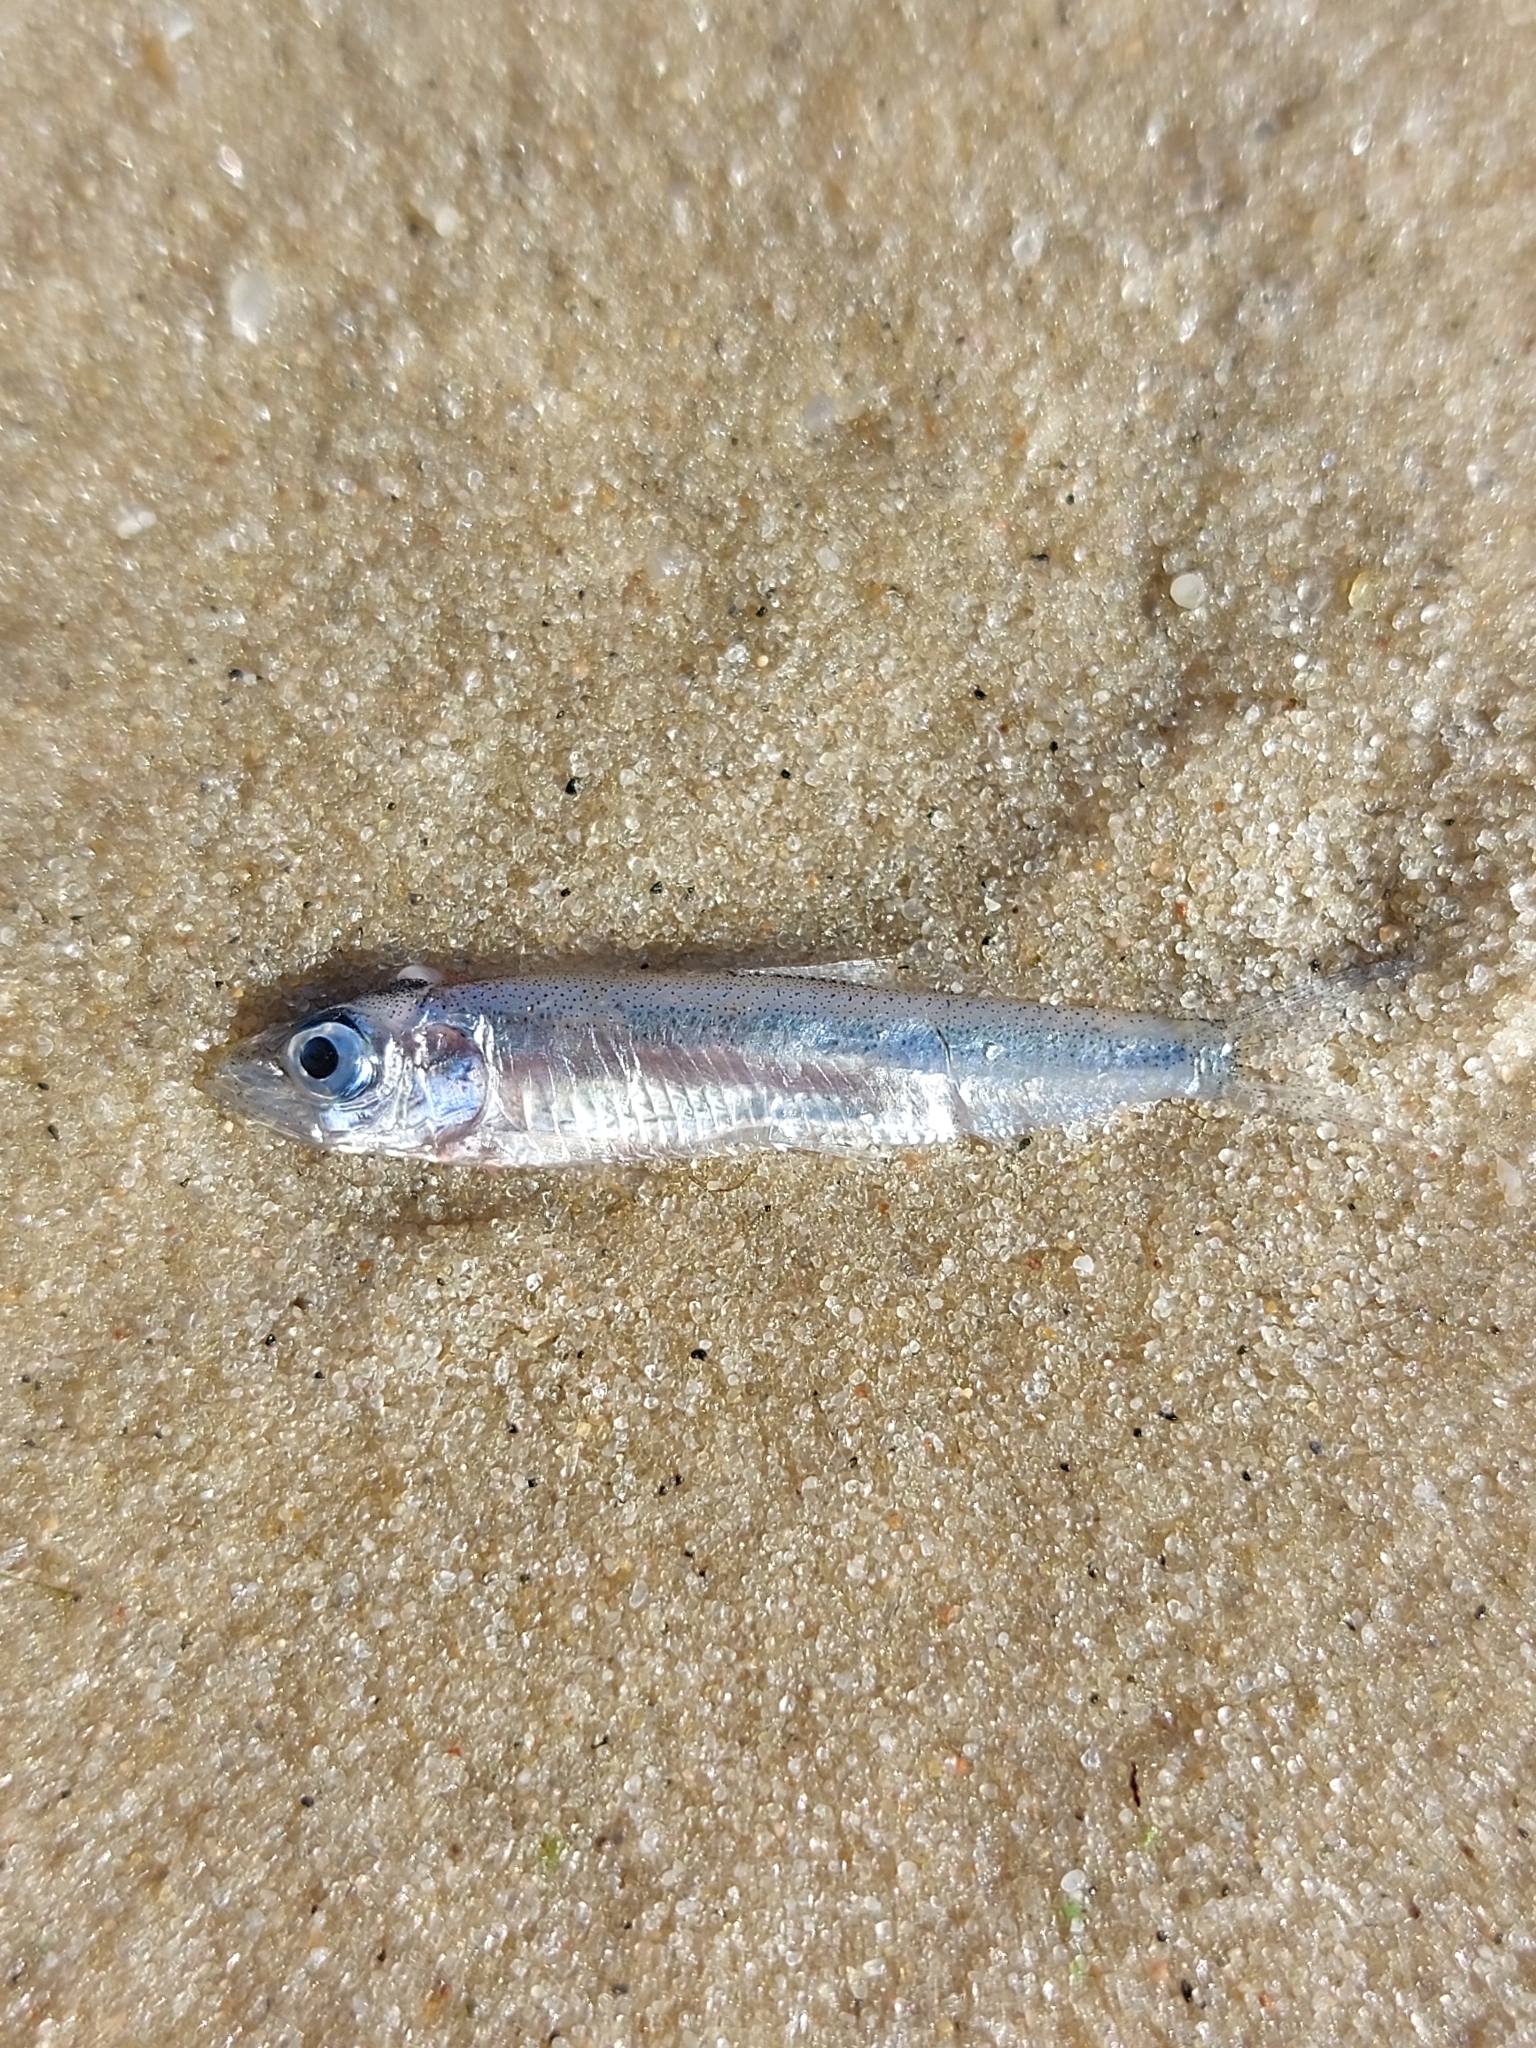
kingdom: Animalia
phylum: Chordata
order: Clupeiformes
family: Clupeidae
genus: Clupeonella
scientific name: Clupeonella cultriventris
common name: Azov sea sprat
